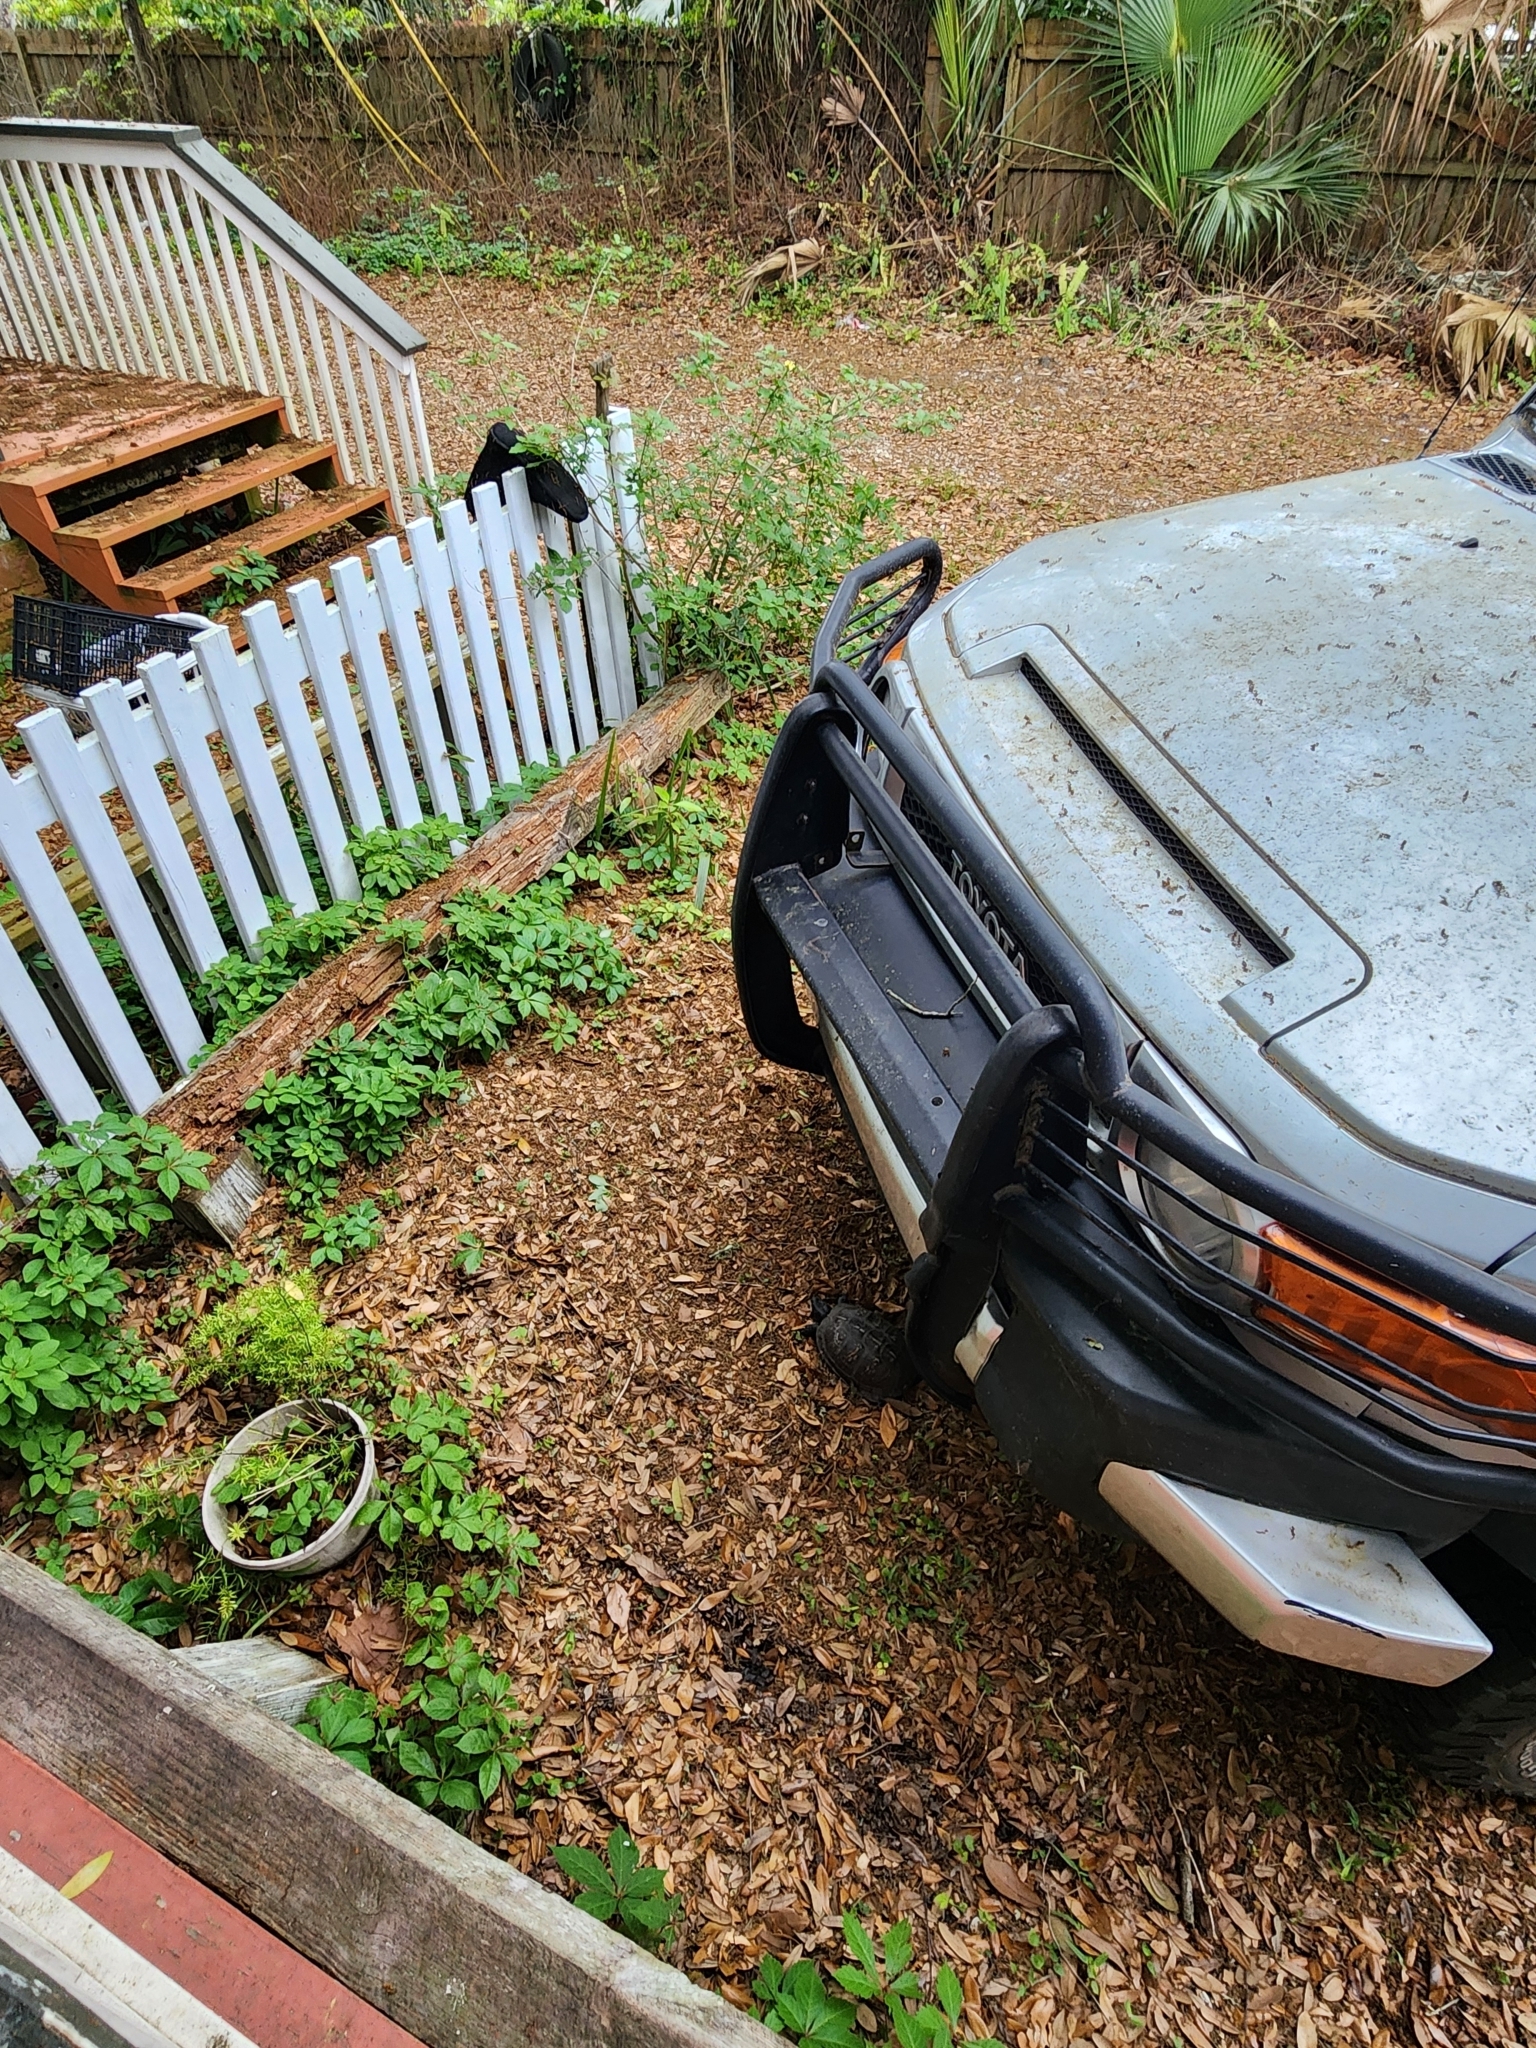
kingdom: Animalia
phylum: Chordata
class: Testudines
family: Emydidae
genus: Terrapene
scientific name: Terrapene carolina
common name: Common box turtle
